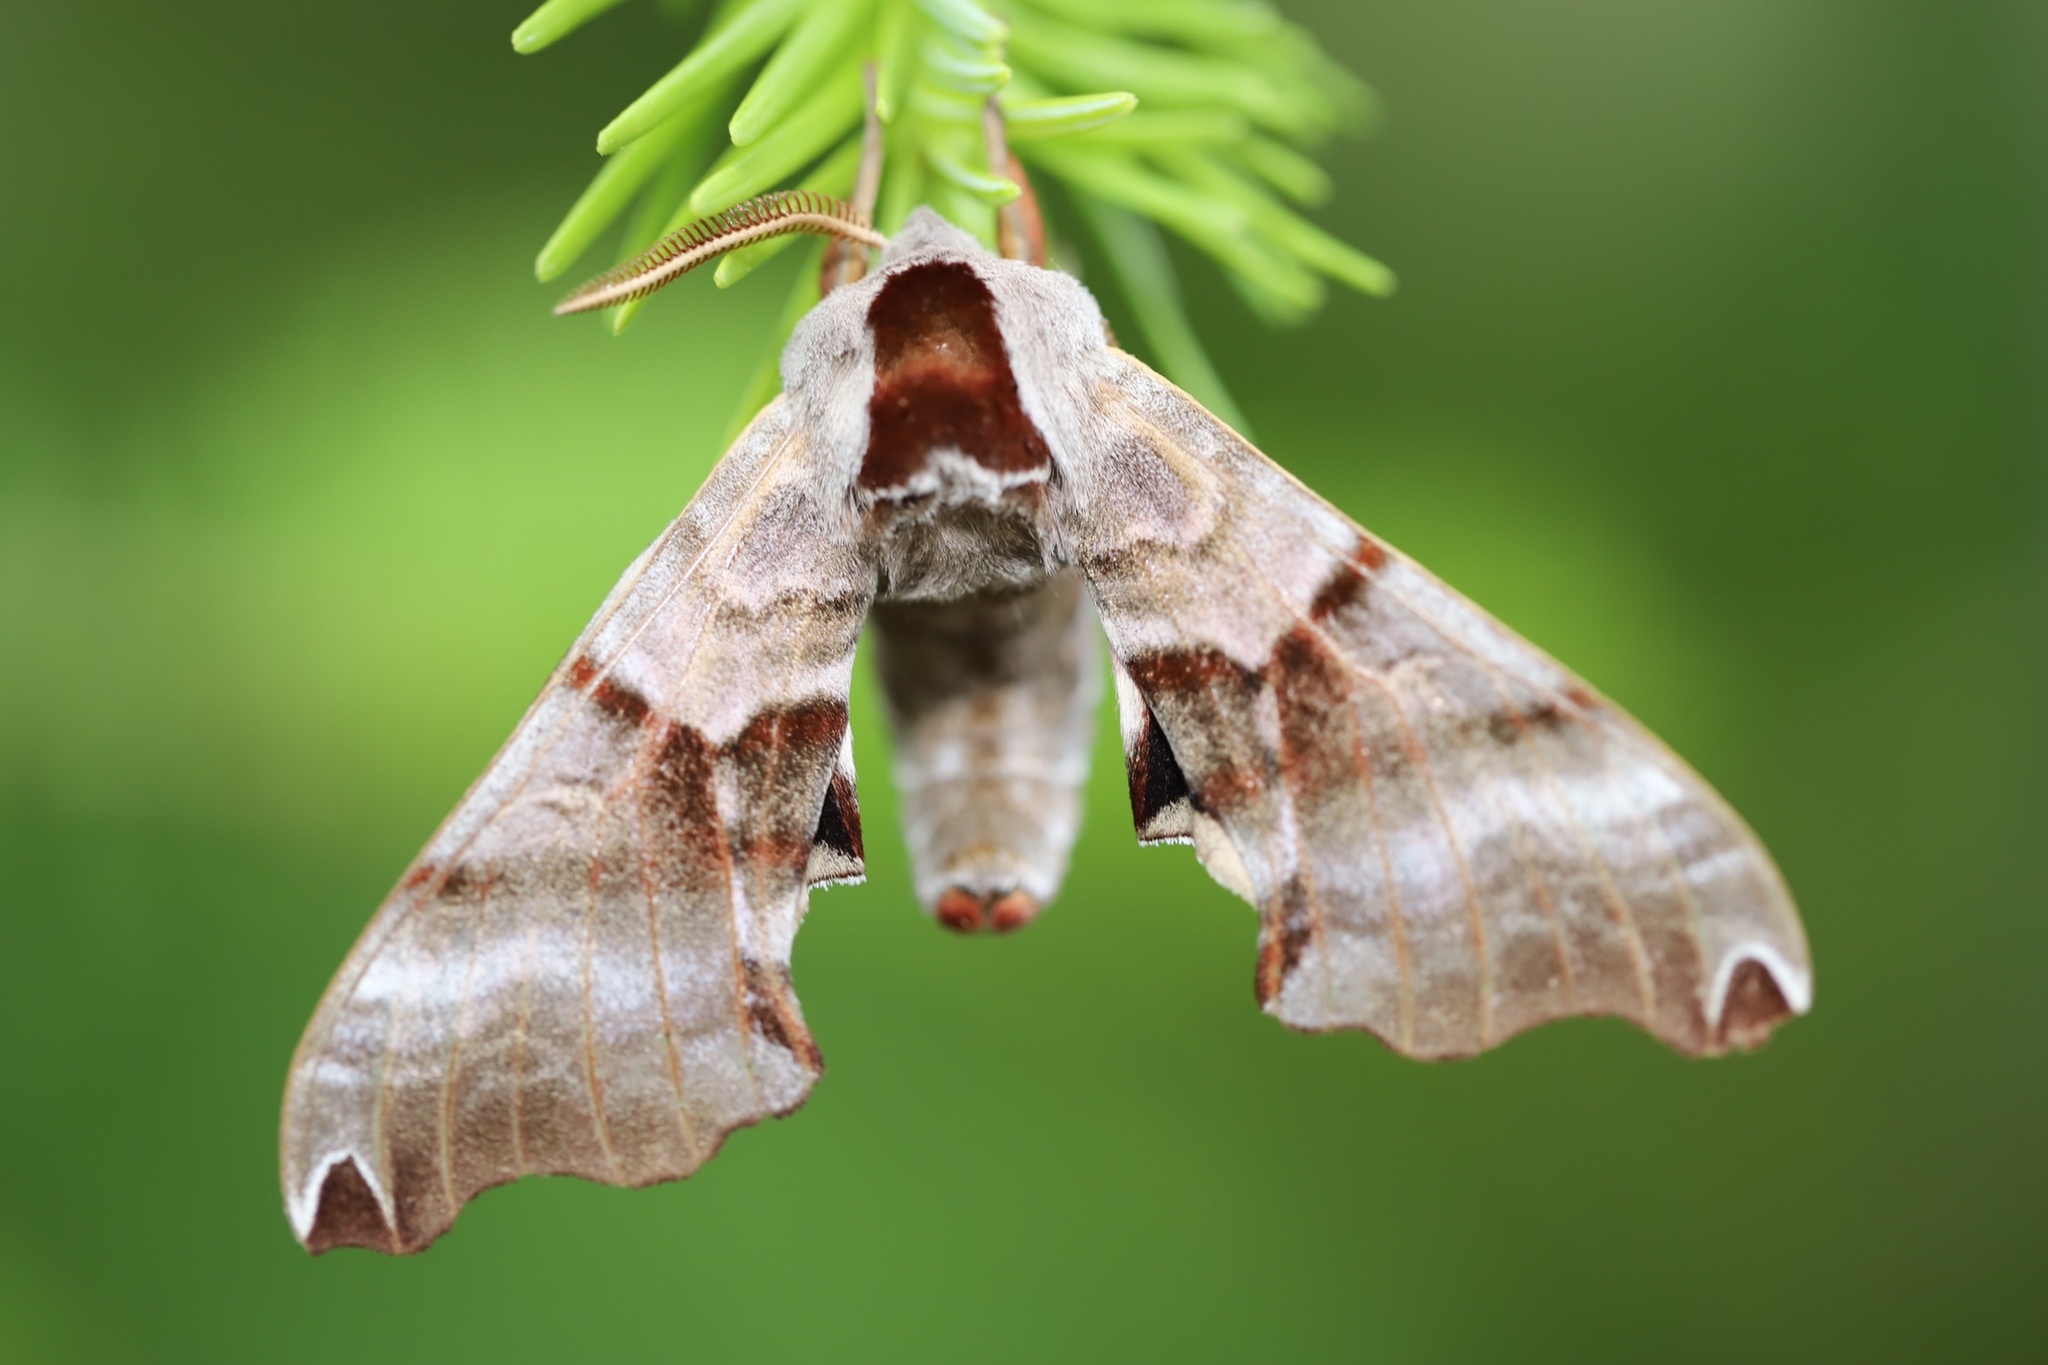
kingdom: Animalia
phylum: Arthropoda
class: Insecta
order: Lepidoptera
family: Sphingidae
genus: Smerinthus
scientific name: Smerinthus jamaicensis
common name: Twin spotted sphinx
